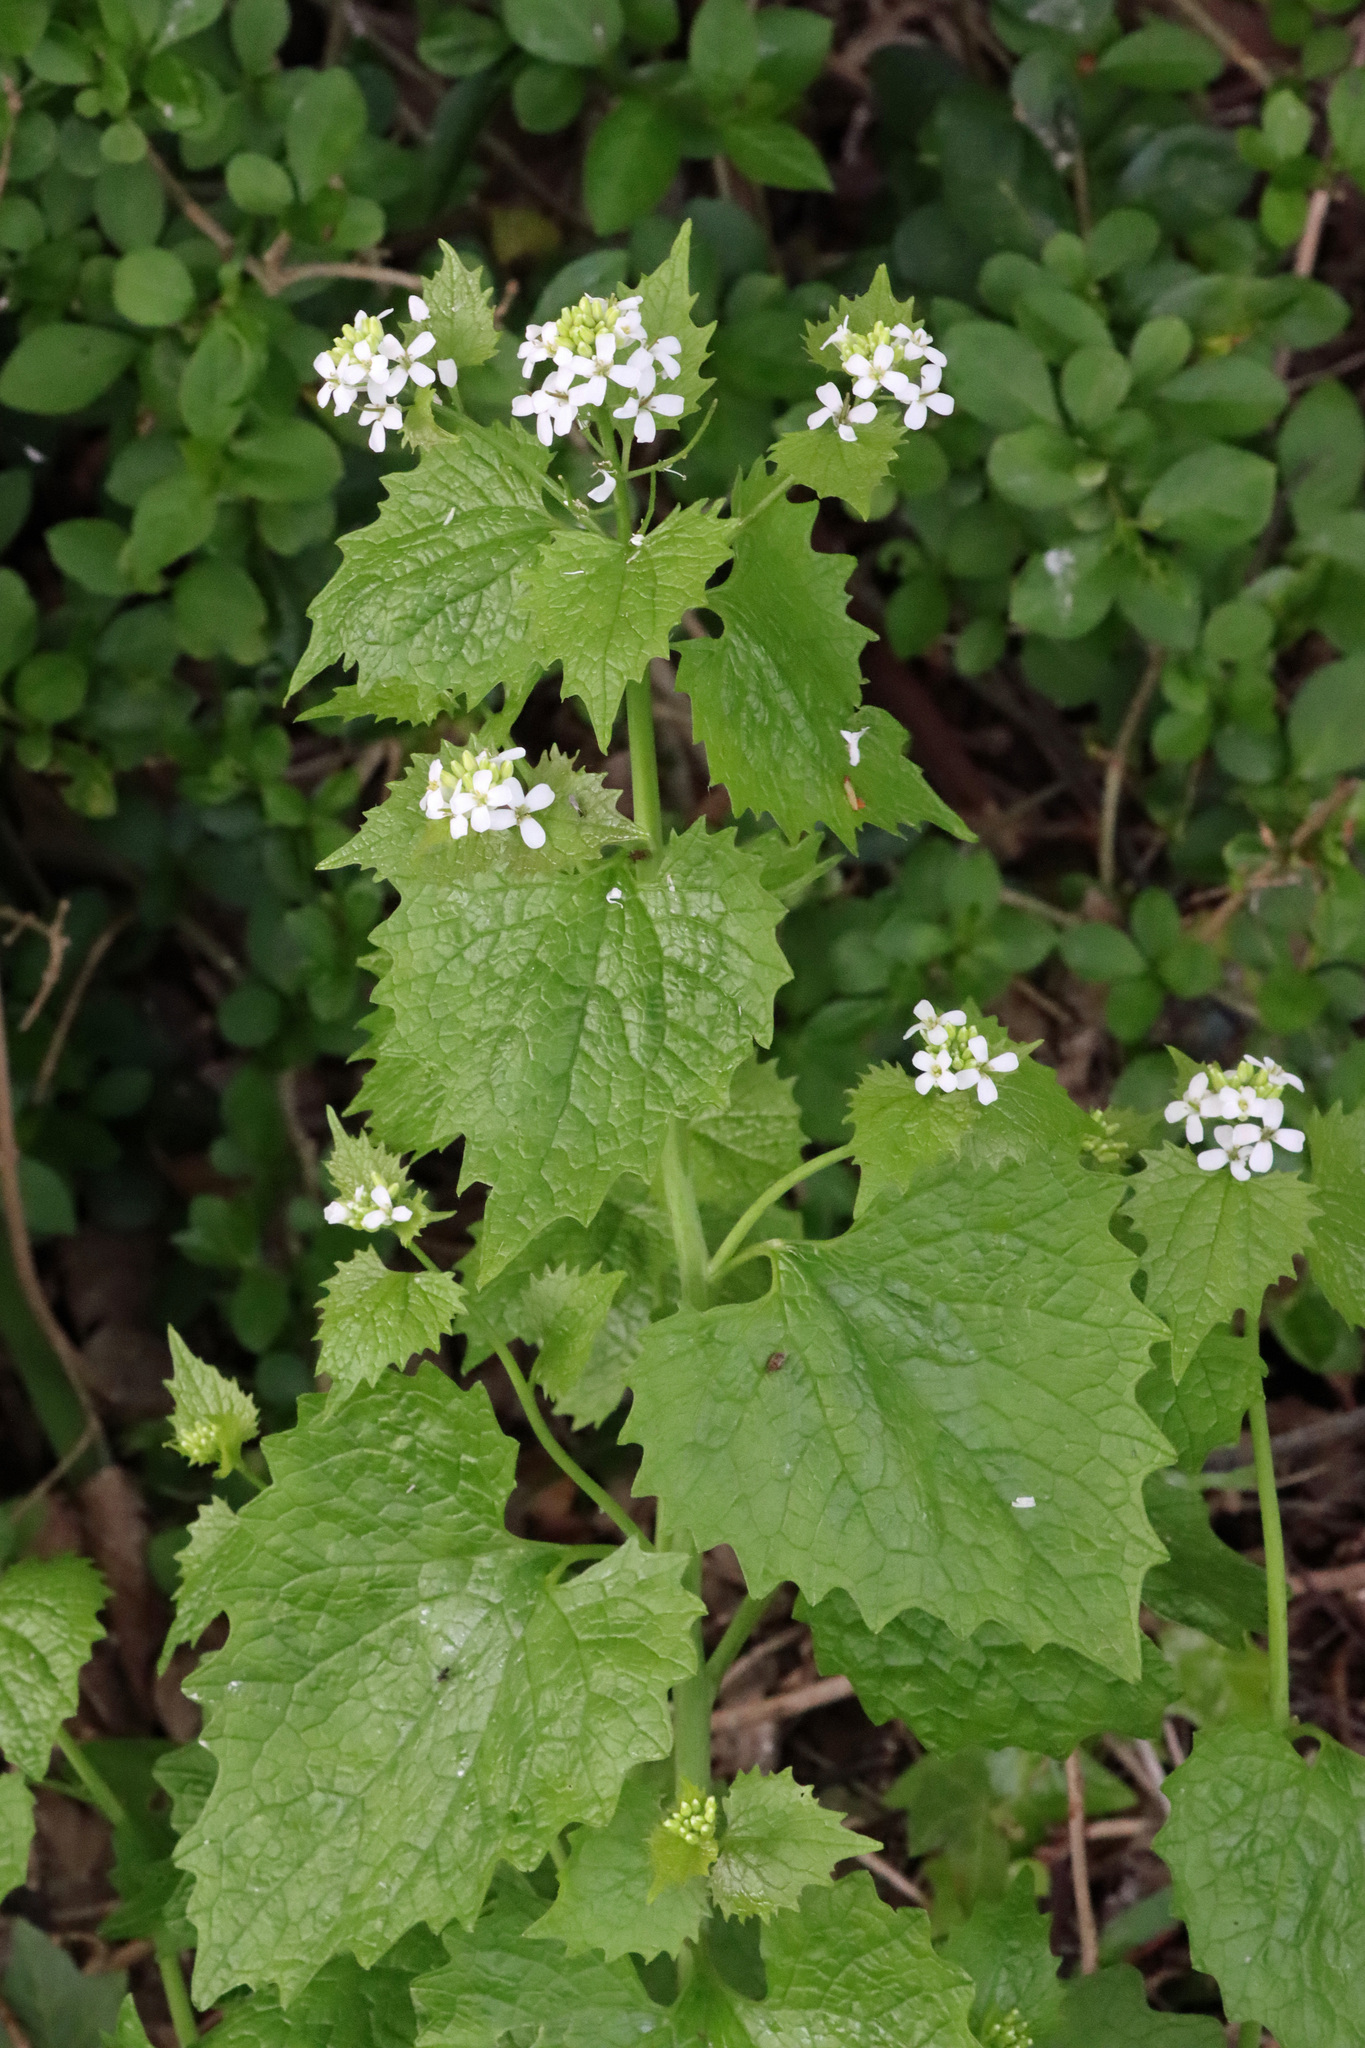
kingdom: Plantae
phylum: Tracheophyta
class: Magnoliopsida
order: Brassicales
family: Brassicaceae
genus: Alliaria
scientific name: Alliaria petiolata
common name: Garlic mustard
